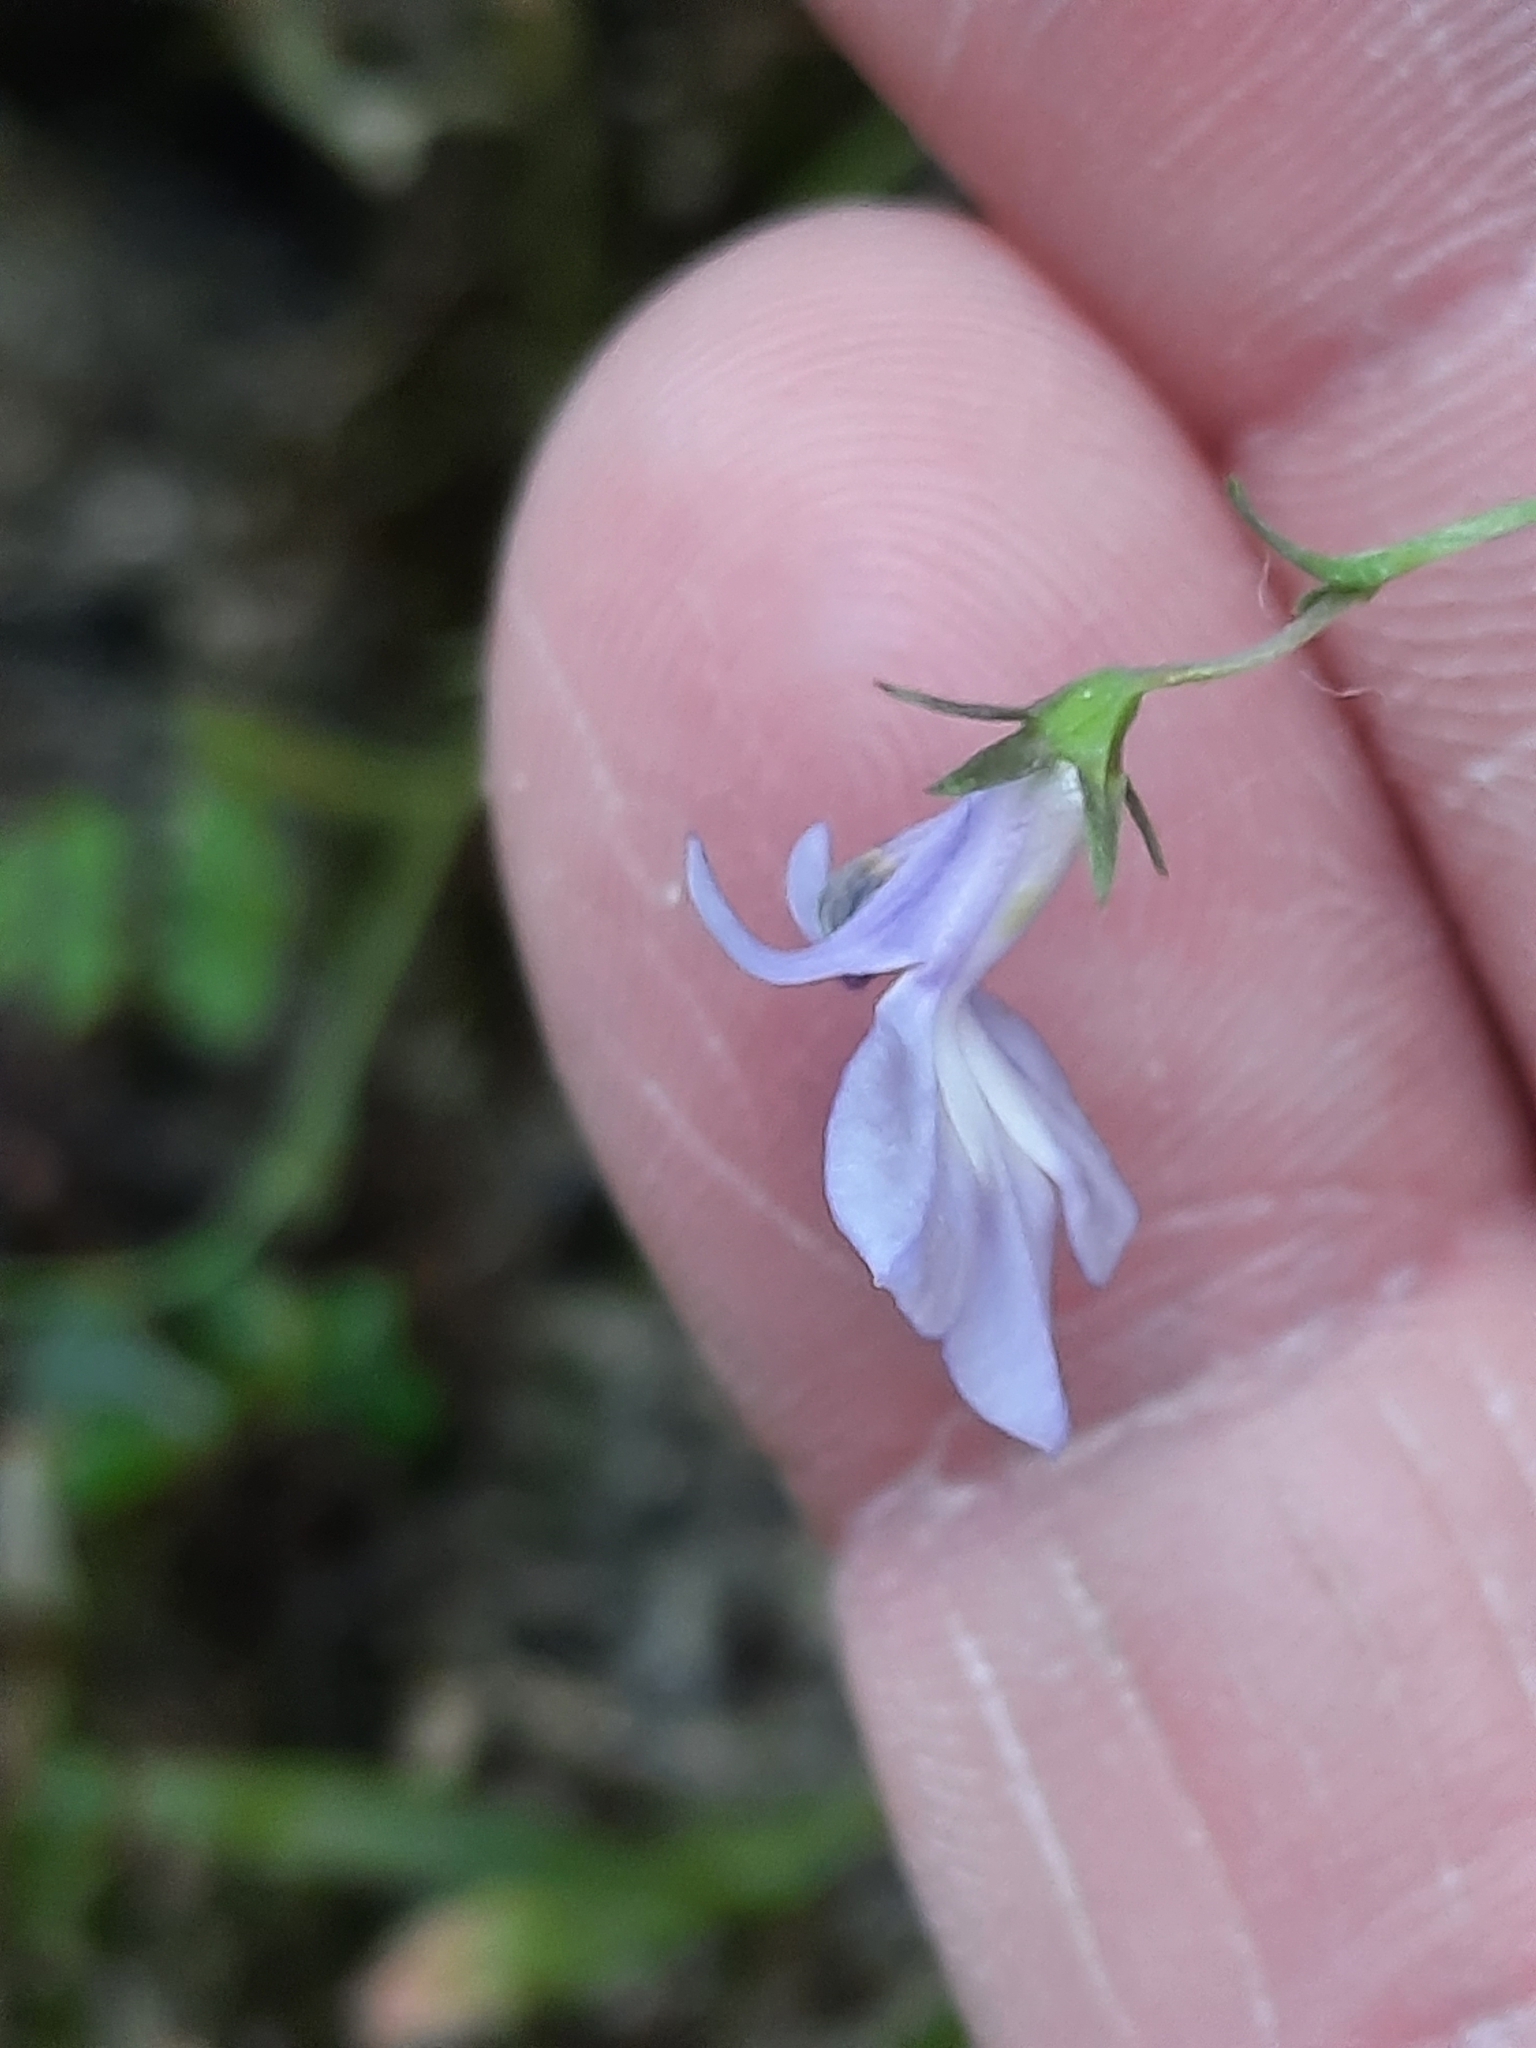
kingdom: Plantae
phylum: Tracheophyta
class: Magnoliopsida
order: Asterales
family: Campanulaceae
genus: Lobelia
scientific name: Lobelia kalmii
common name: Kalm's lobelia
